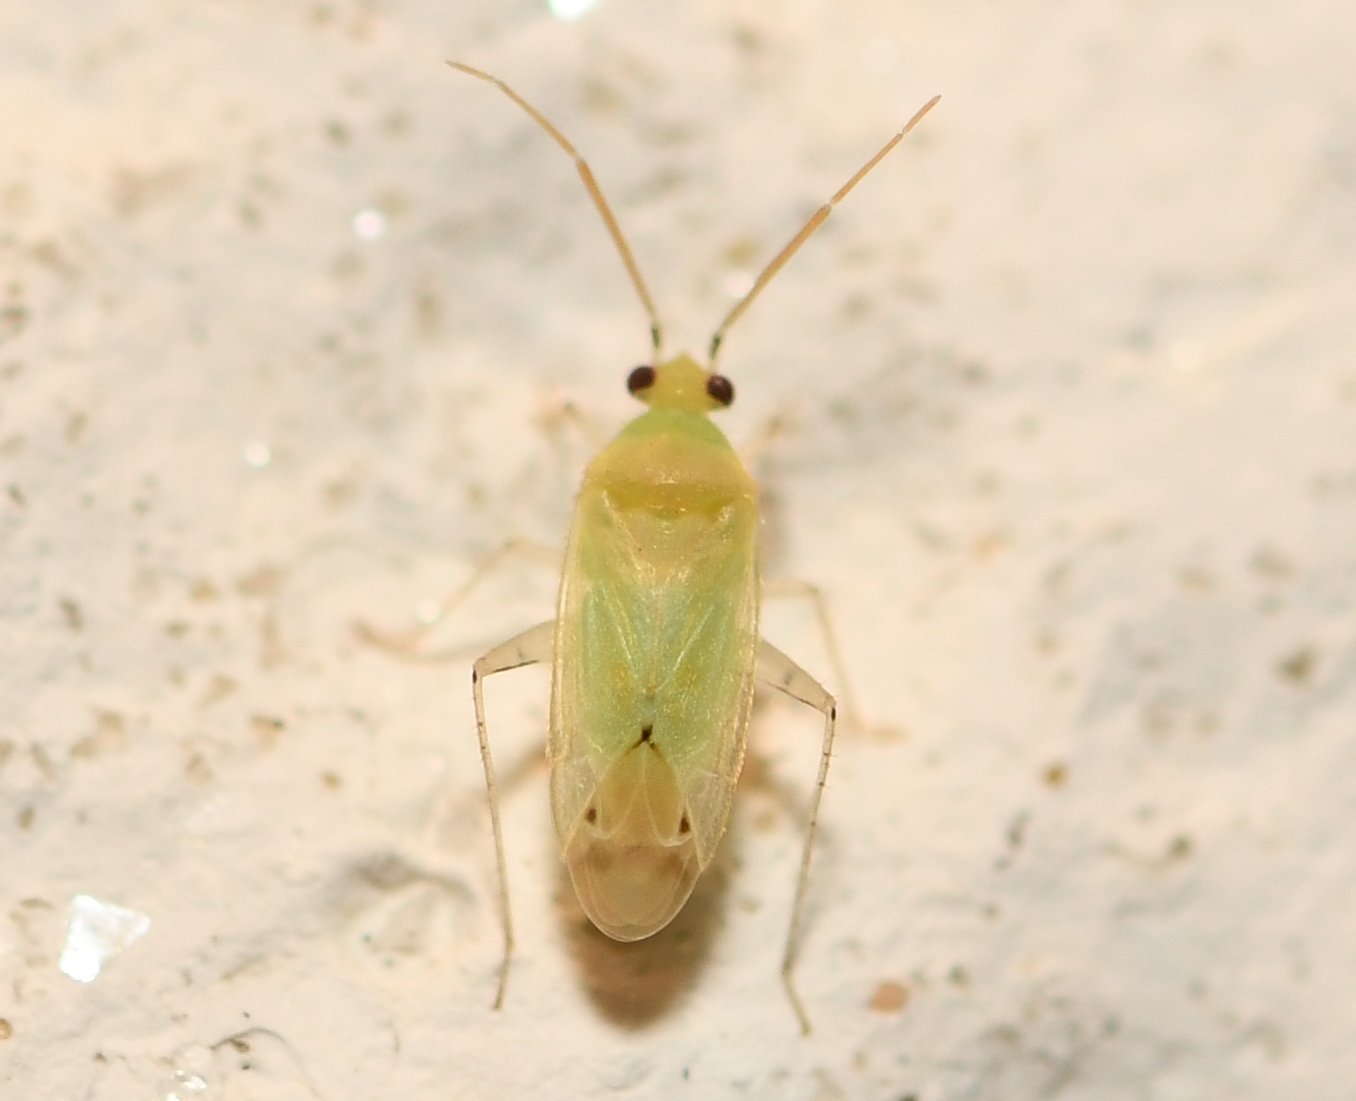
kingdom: Animalia
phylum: Arthropoda
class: Insecta
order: Hemiptera
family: Miridae
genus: Americodema
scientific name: Americodema nigrolineatum
